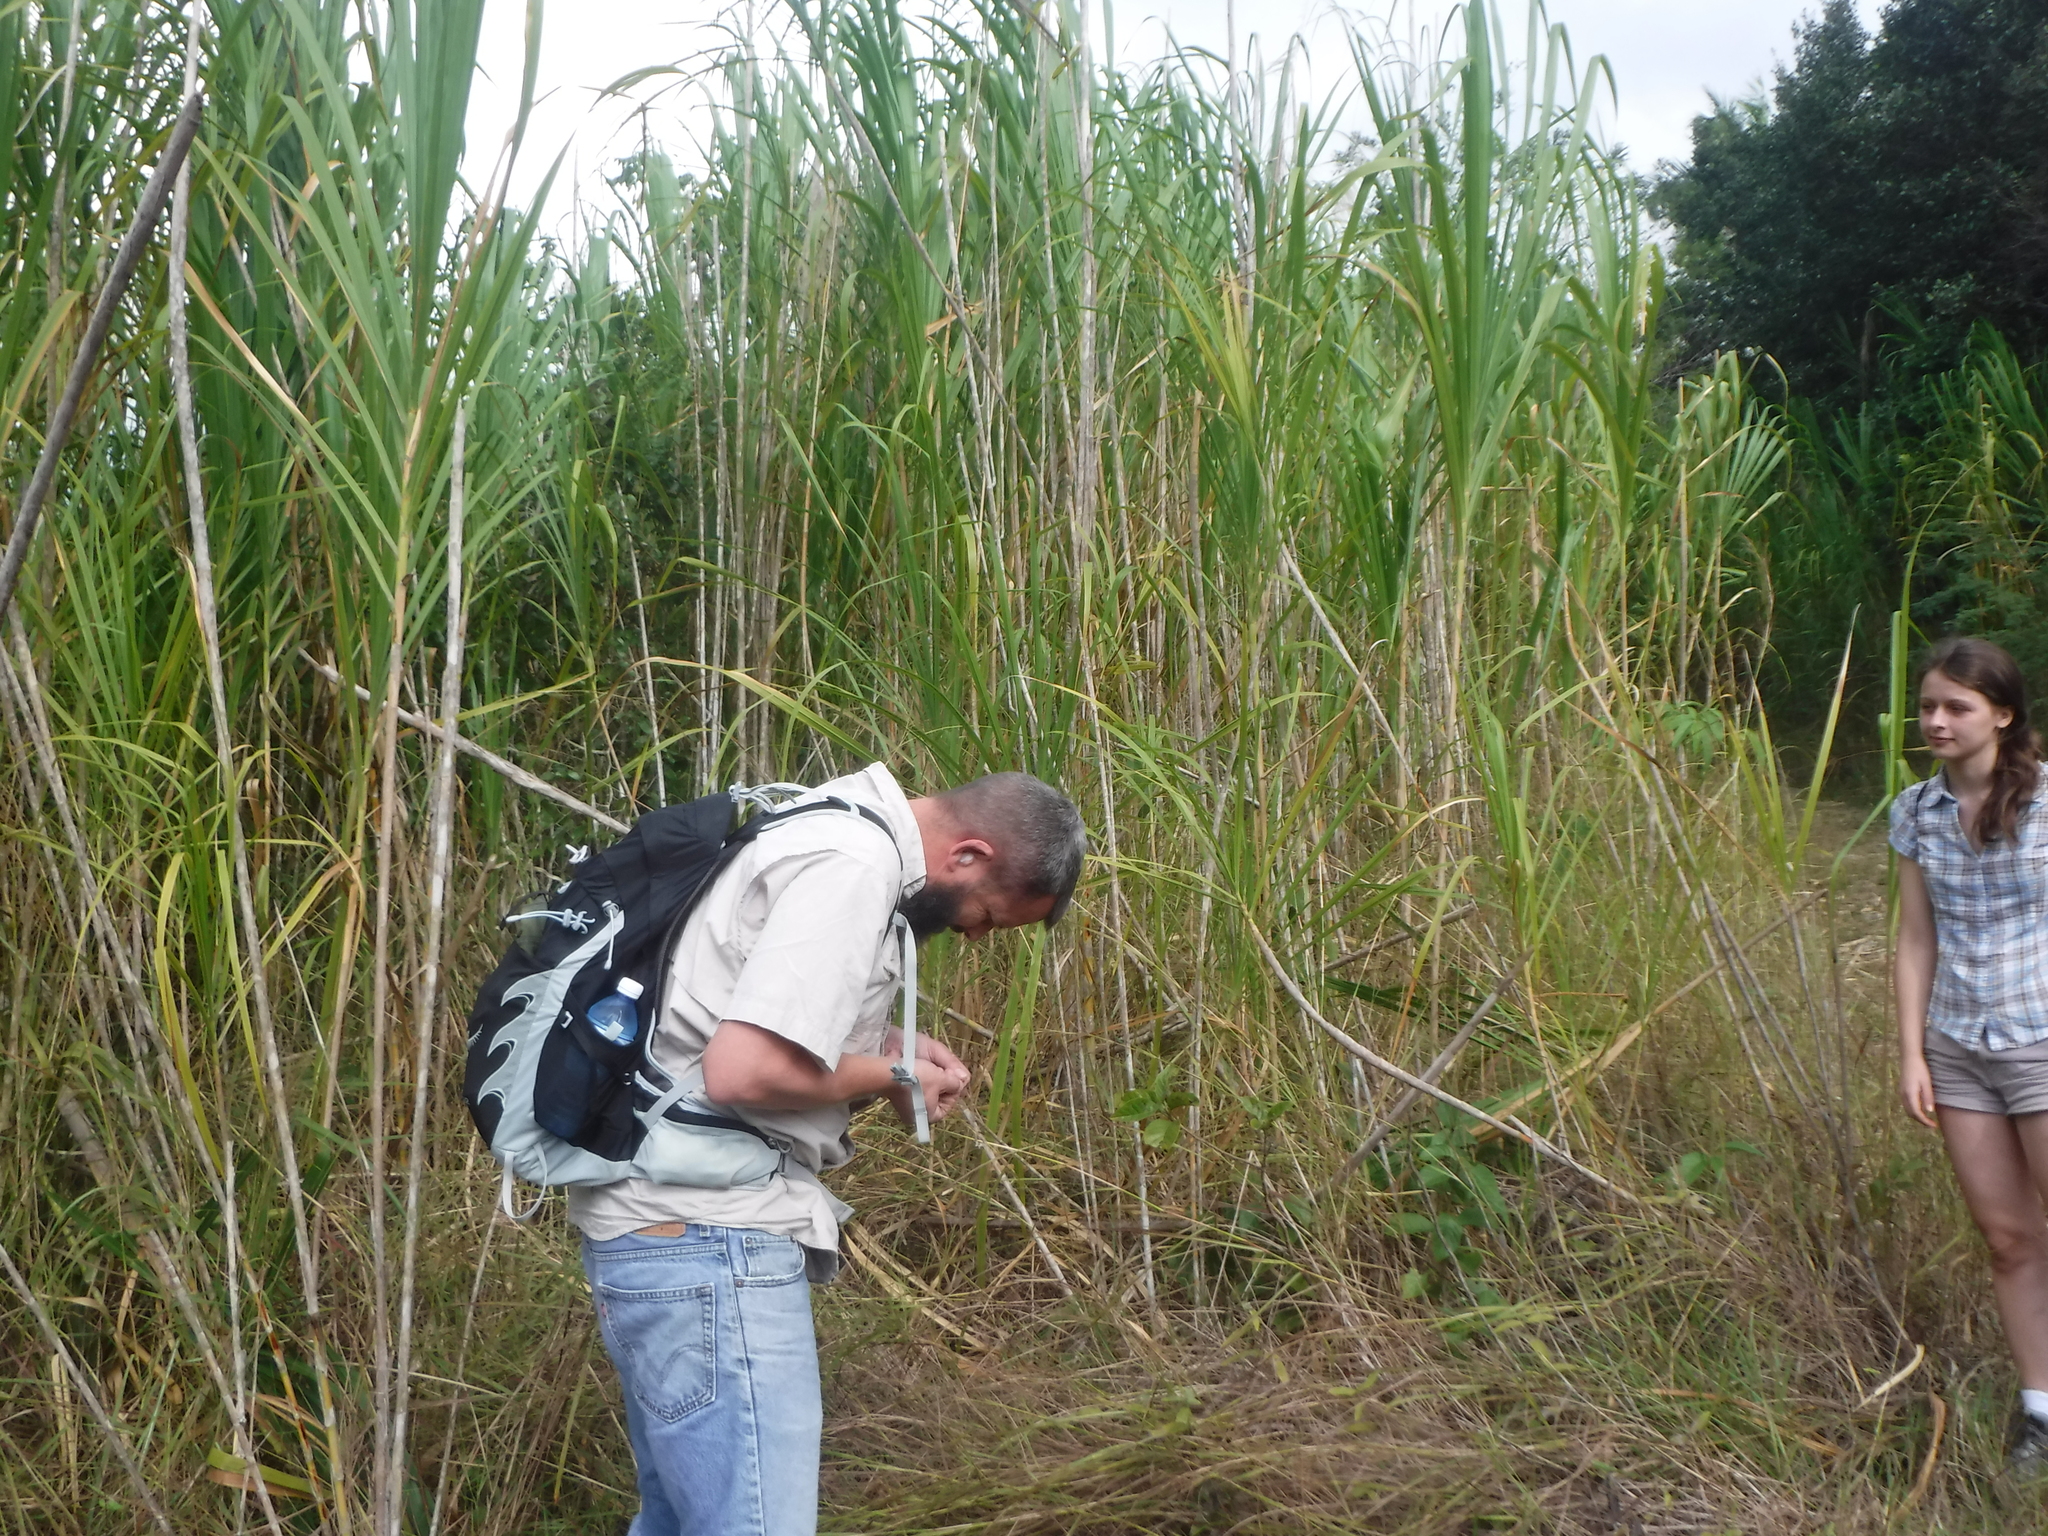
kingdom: Plantae
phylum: Tracheophyta
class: Liliopsida
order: Poales
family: Poaceae
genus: Gynerium
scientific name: Gynerium sagittatum
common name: Wild cane
